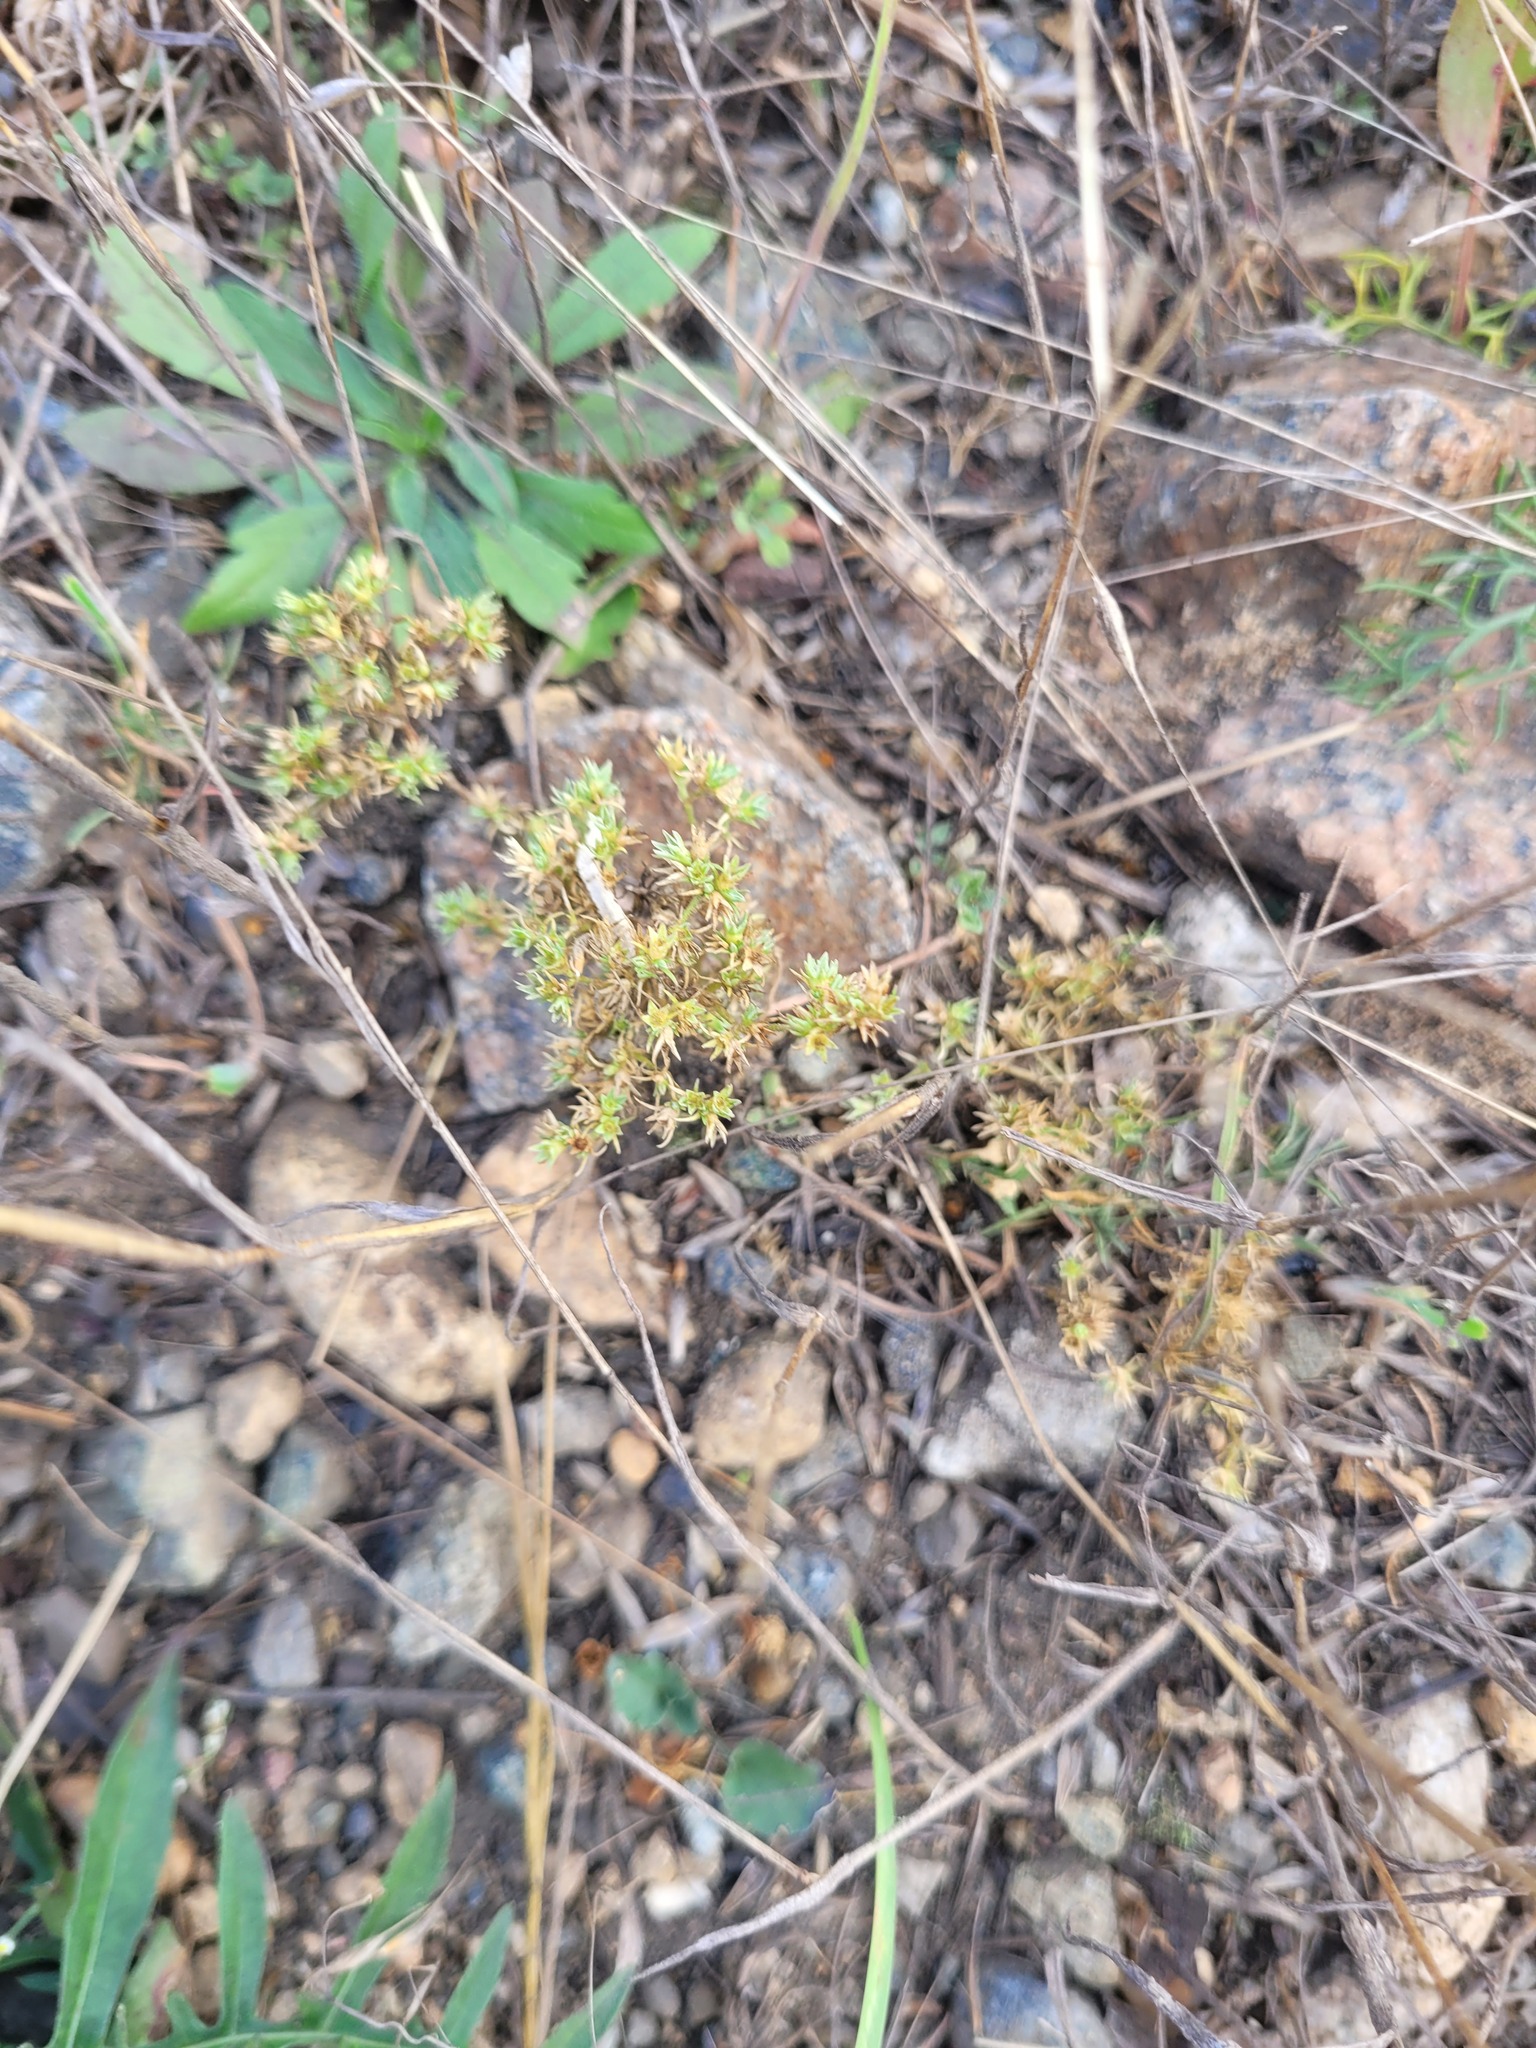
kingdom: Plantae
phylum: Tracheophyta
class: Magnoliopsida
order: Caryophyllales
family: Caryophyllaceae
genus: Scleranthus
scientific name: Scleranthus annuus
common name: Annual knawel
